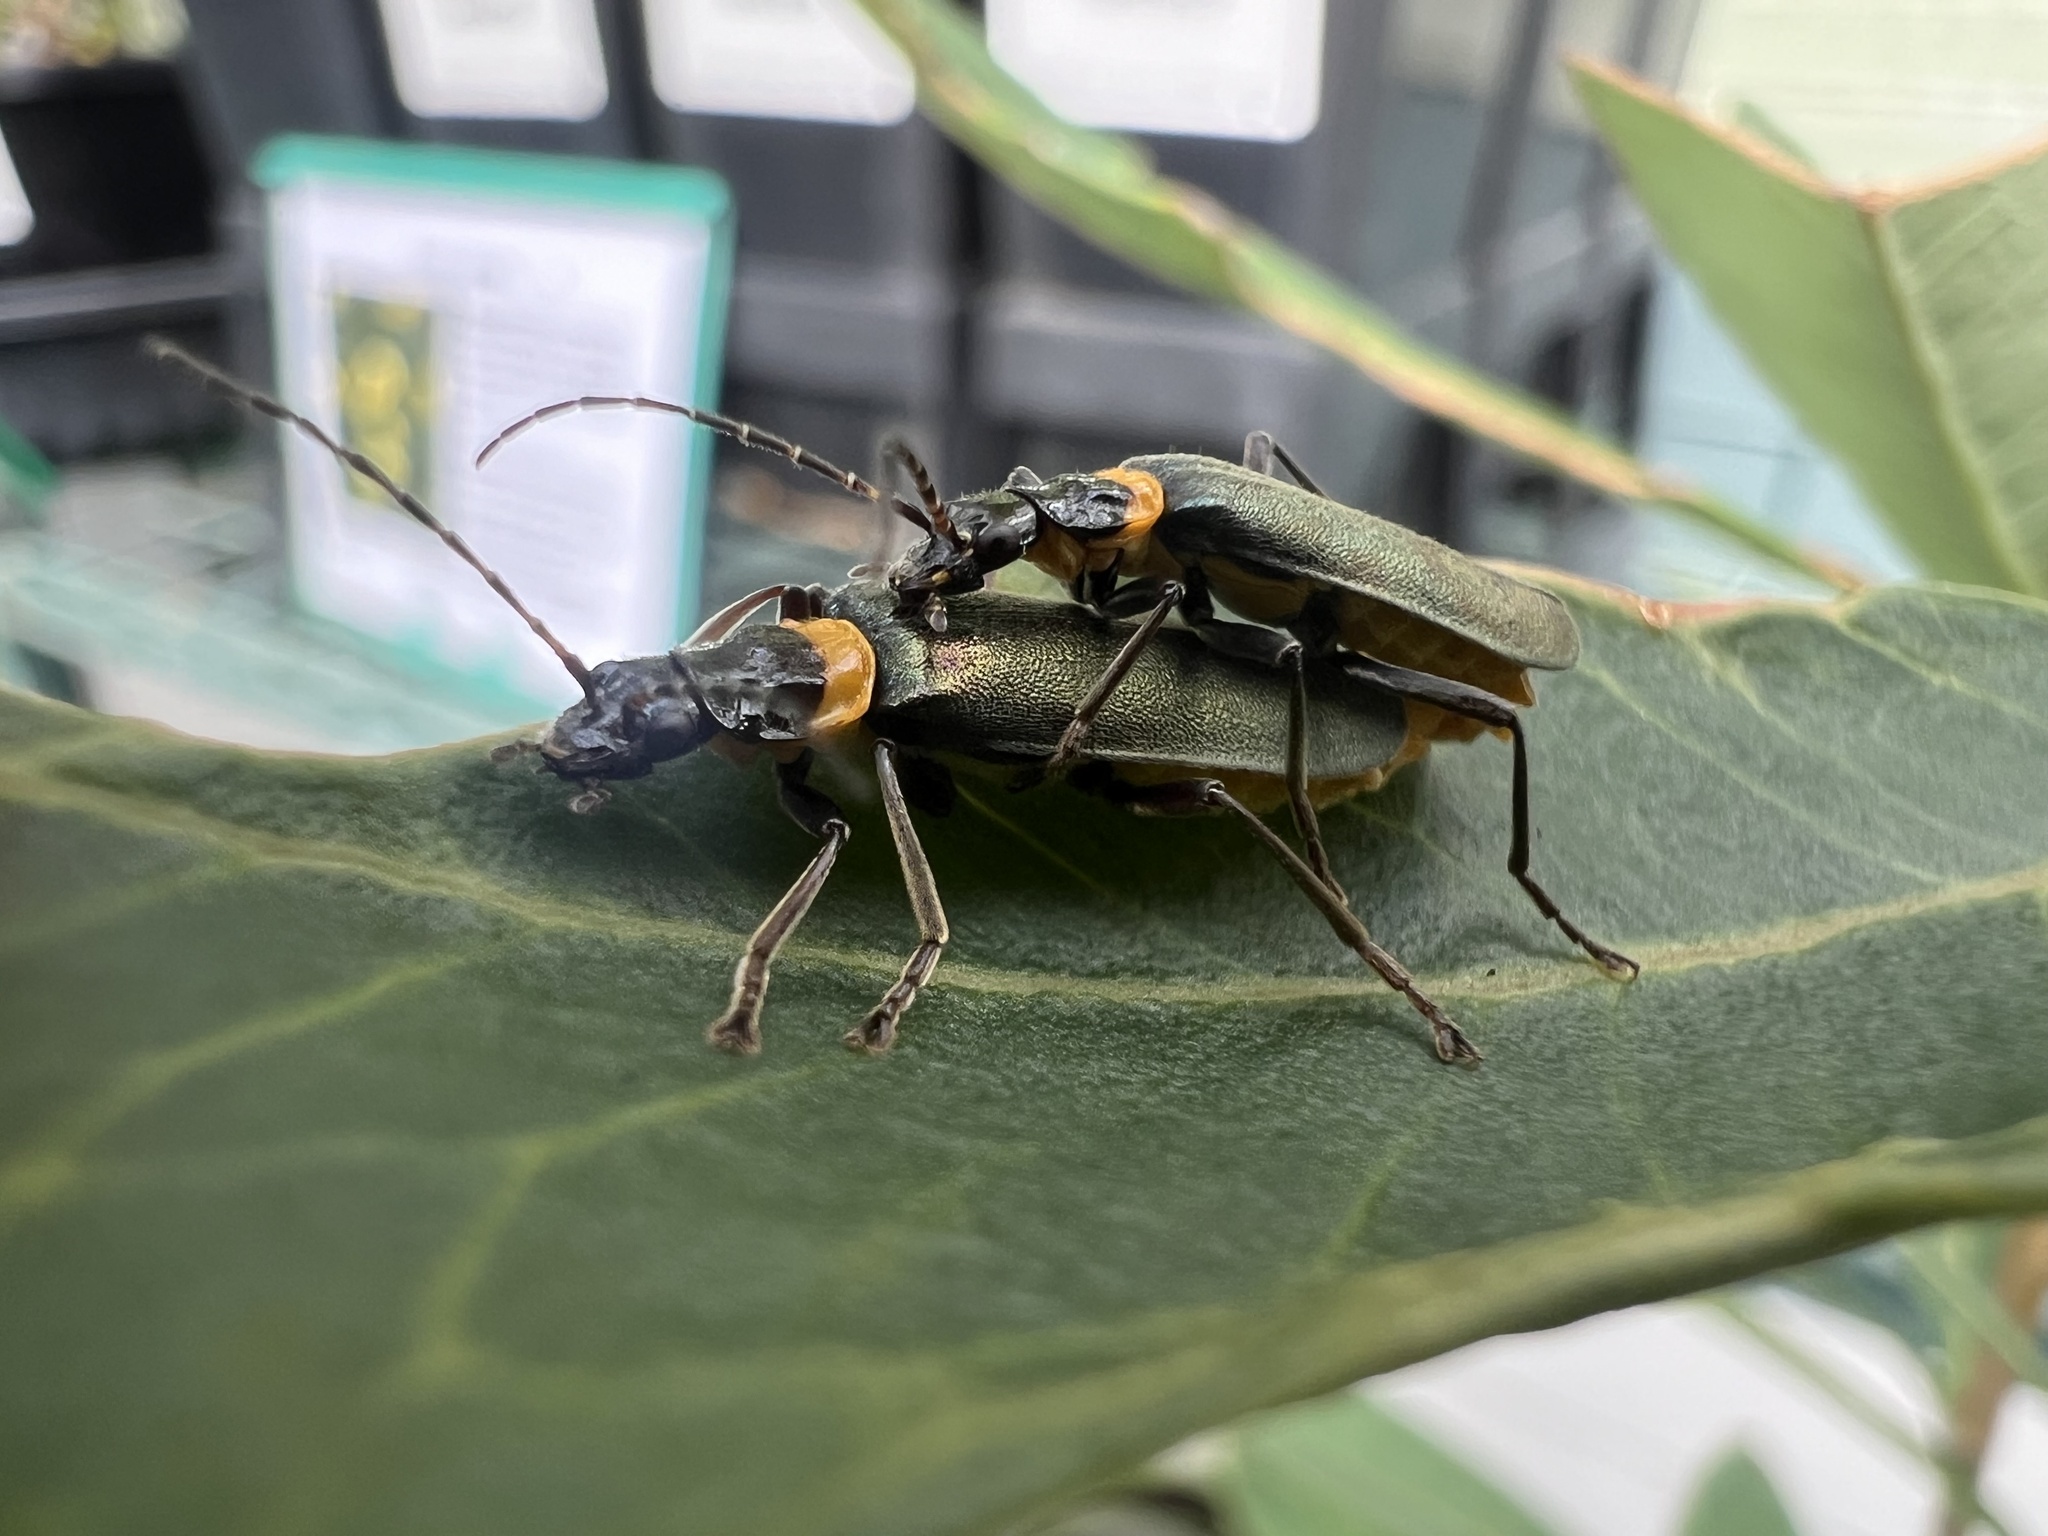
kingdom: Animalia
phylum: Arthropoda
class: Insecta
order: Coleoptera
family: Cantharidae
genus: Chauliognathus
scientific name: Chauliognathus
